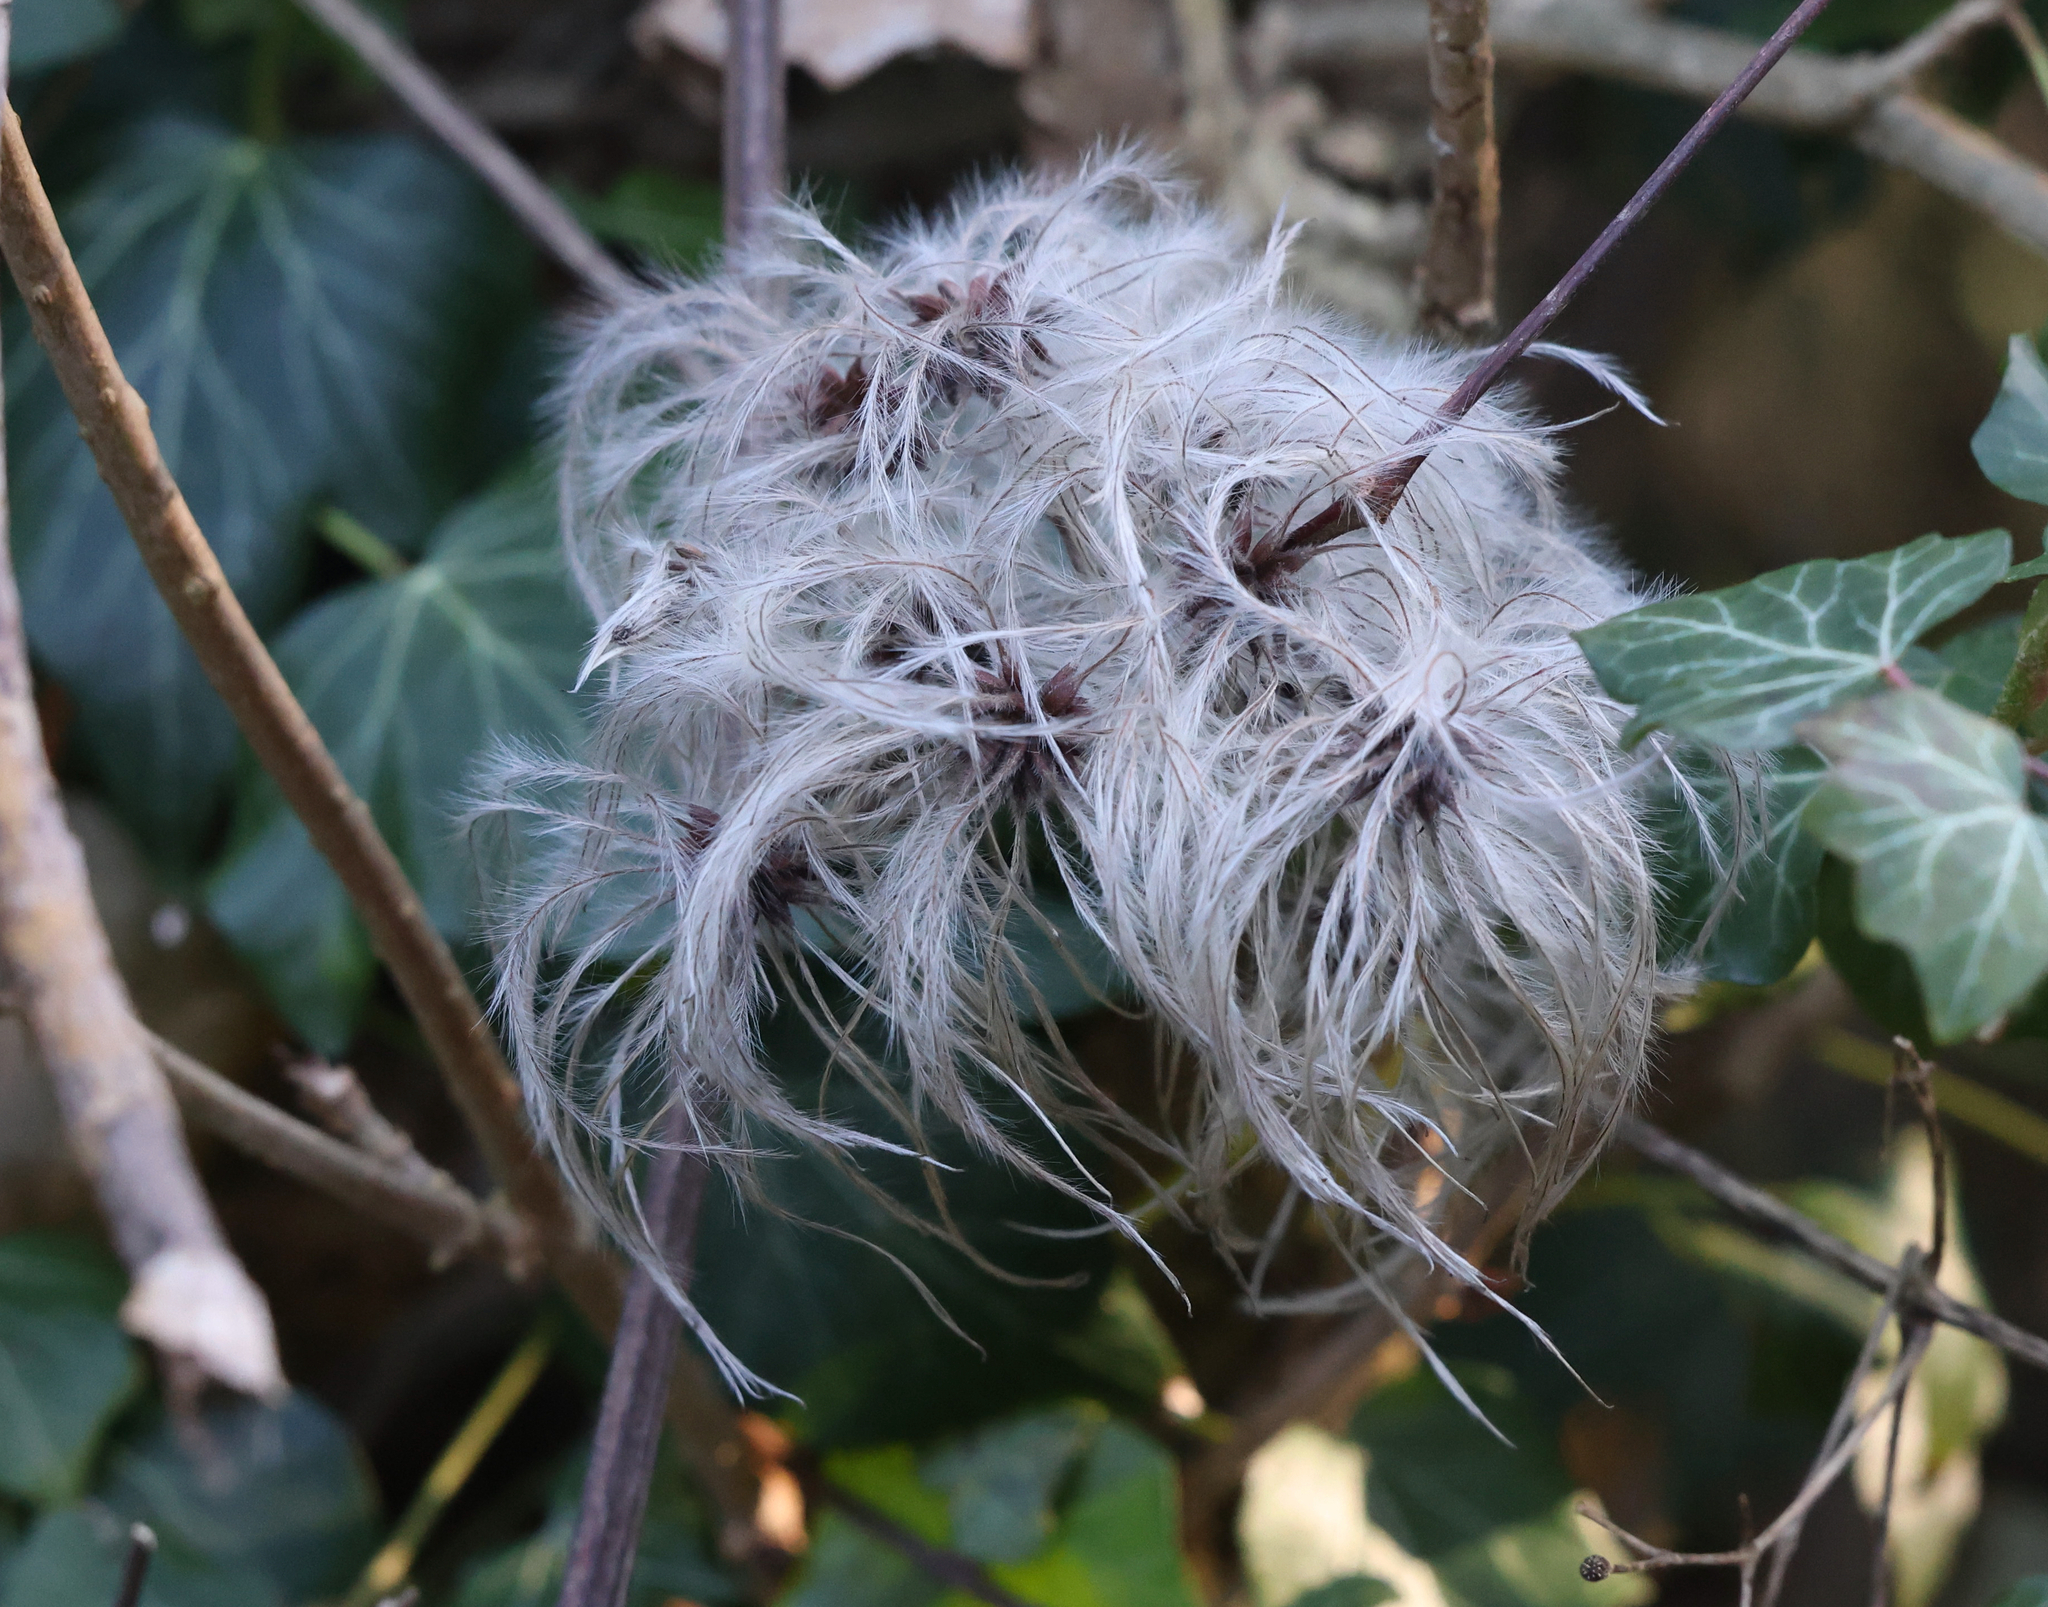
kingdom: Plantae
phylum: Tracheophyta
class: Magnoliopsida
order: Ranunculales
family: Ranunculaceae
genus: Clematis
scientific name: Clematis vitalba
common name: Evergreen clematis
